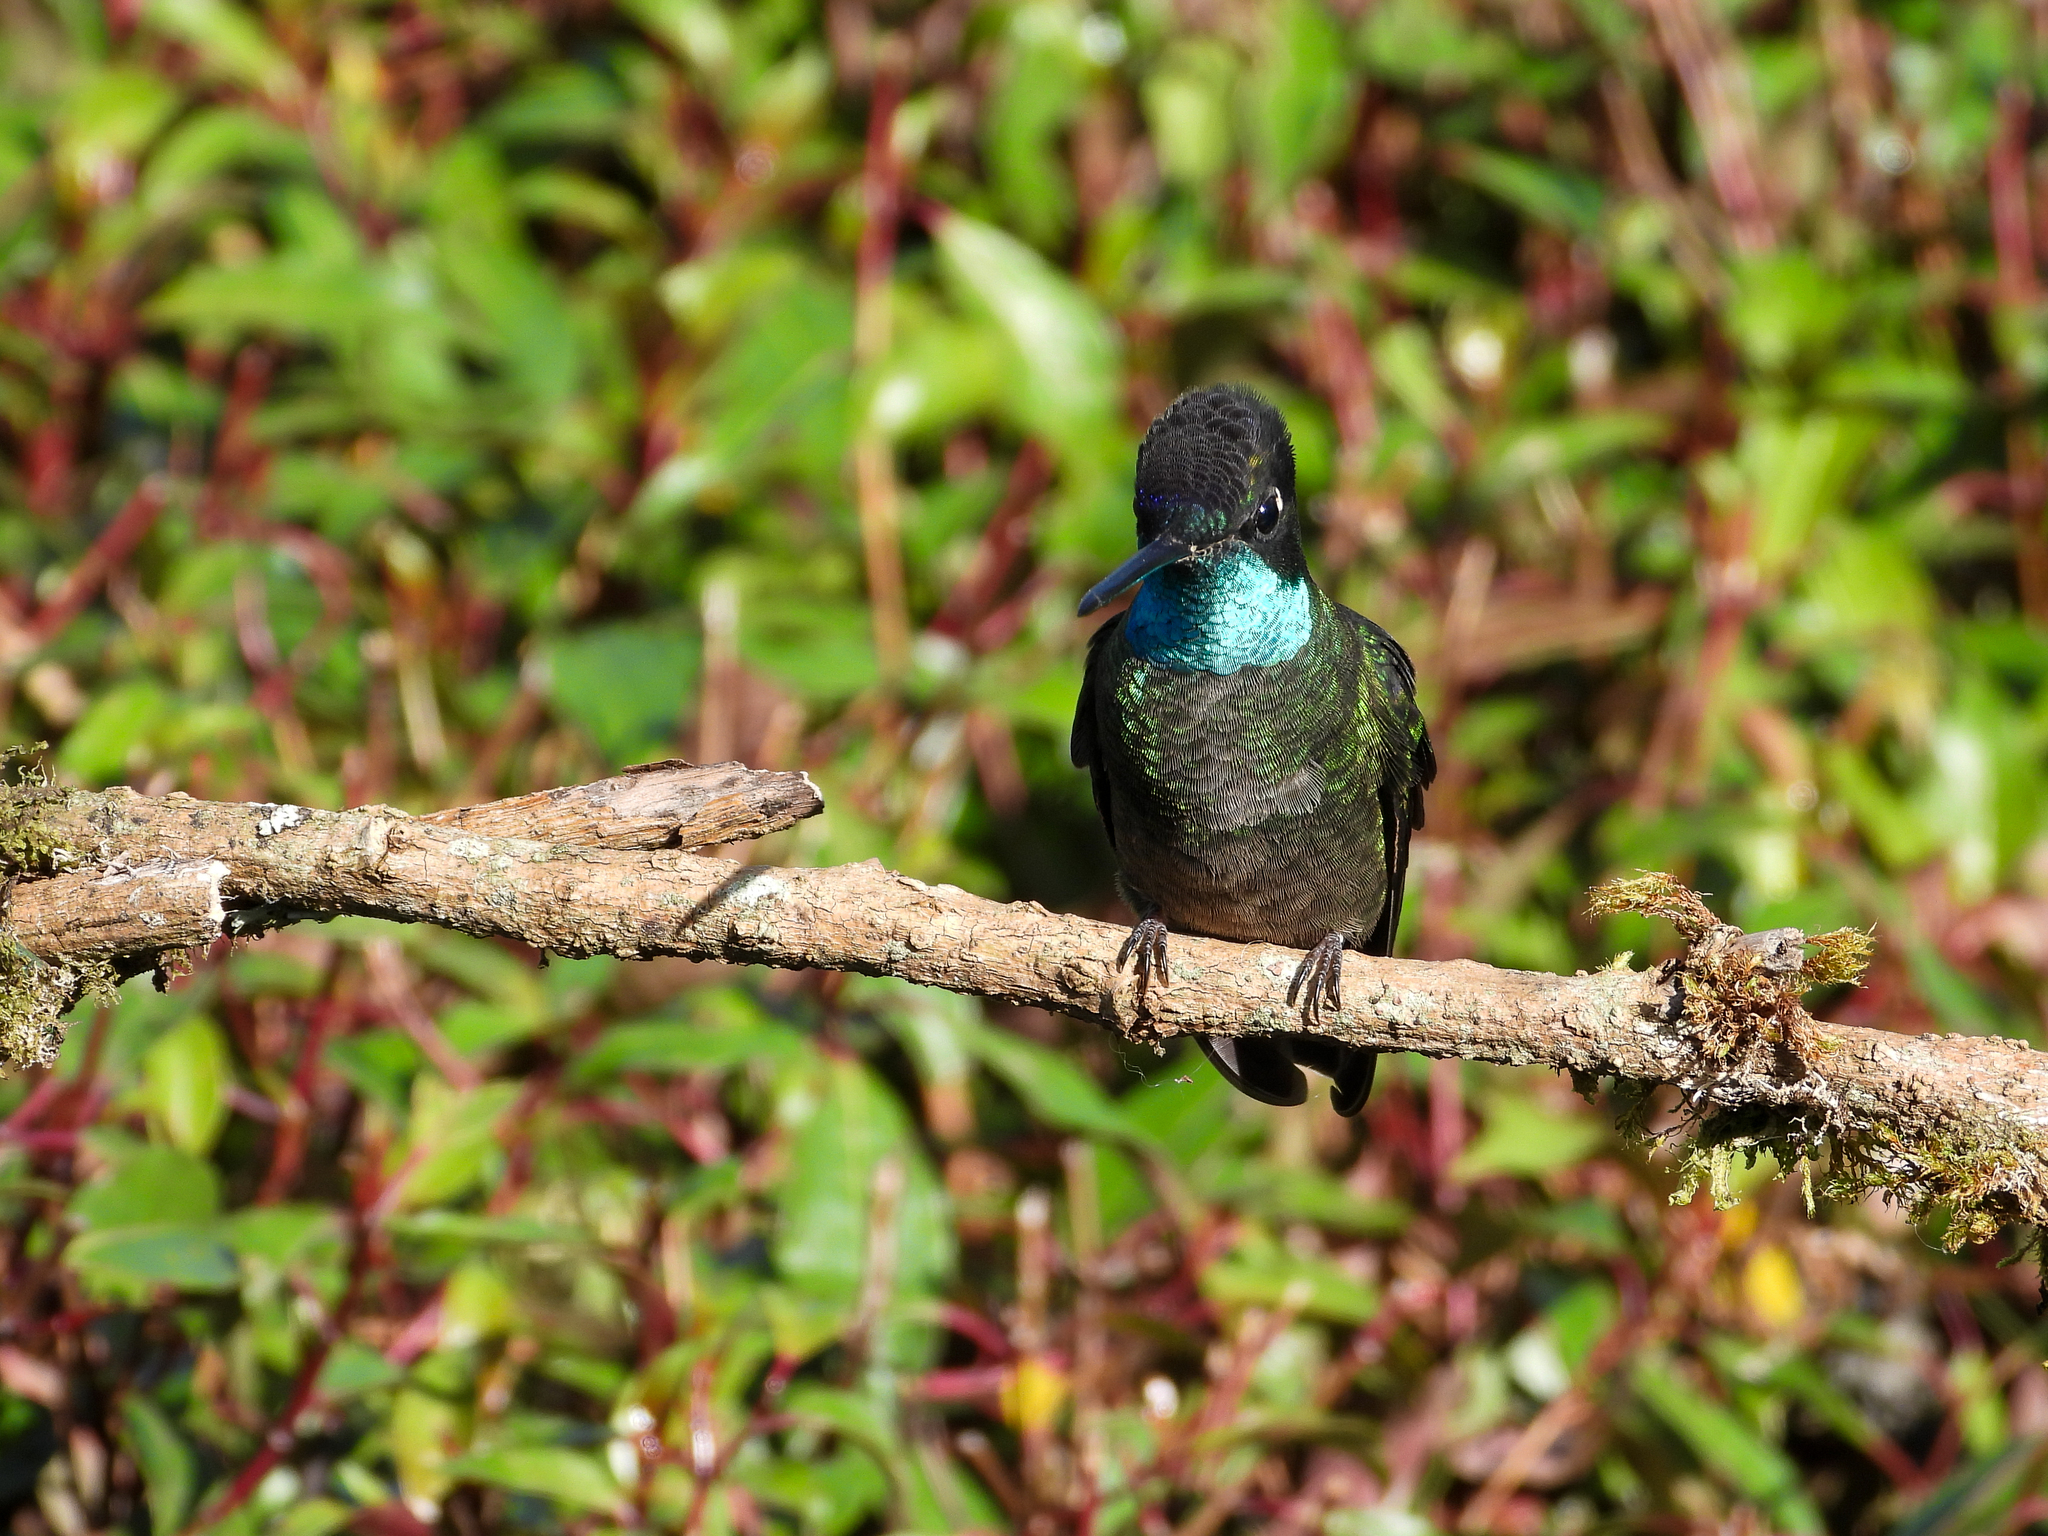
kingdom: Animalia
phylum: Chordata
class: Aves
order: Apodiformes
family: Trochilidae
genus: Eugenes
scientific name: Eugenes spectabilis
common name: Talamanca hummingbird
